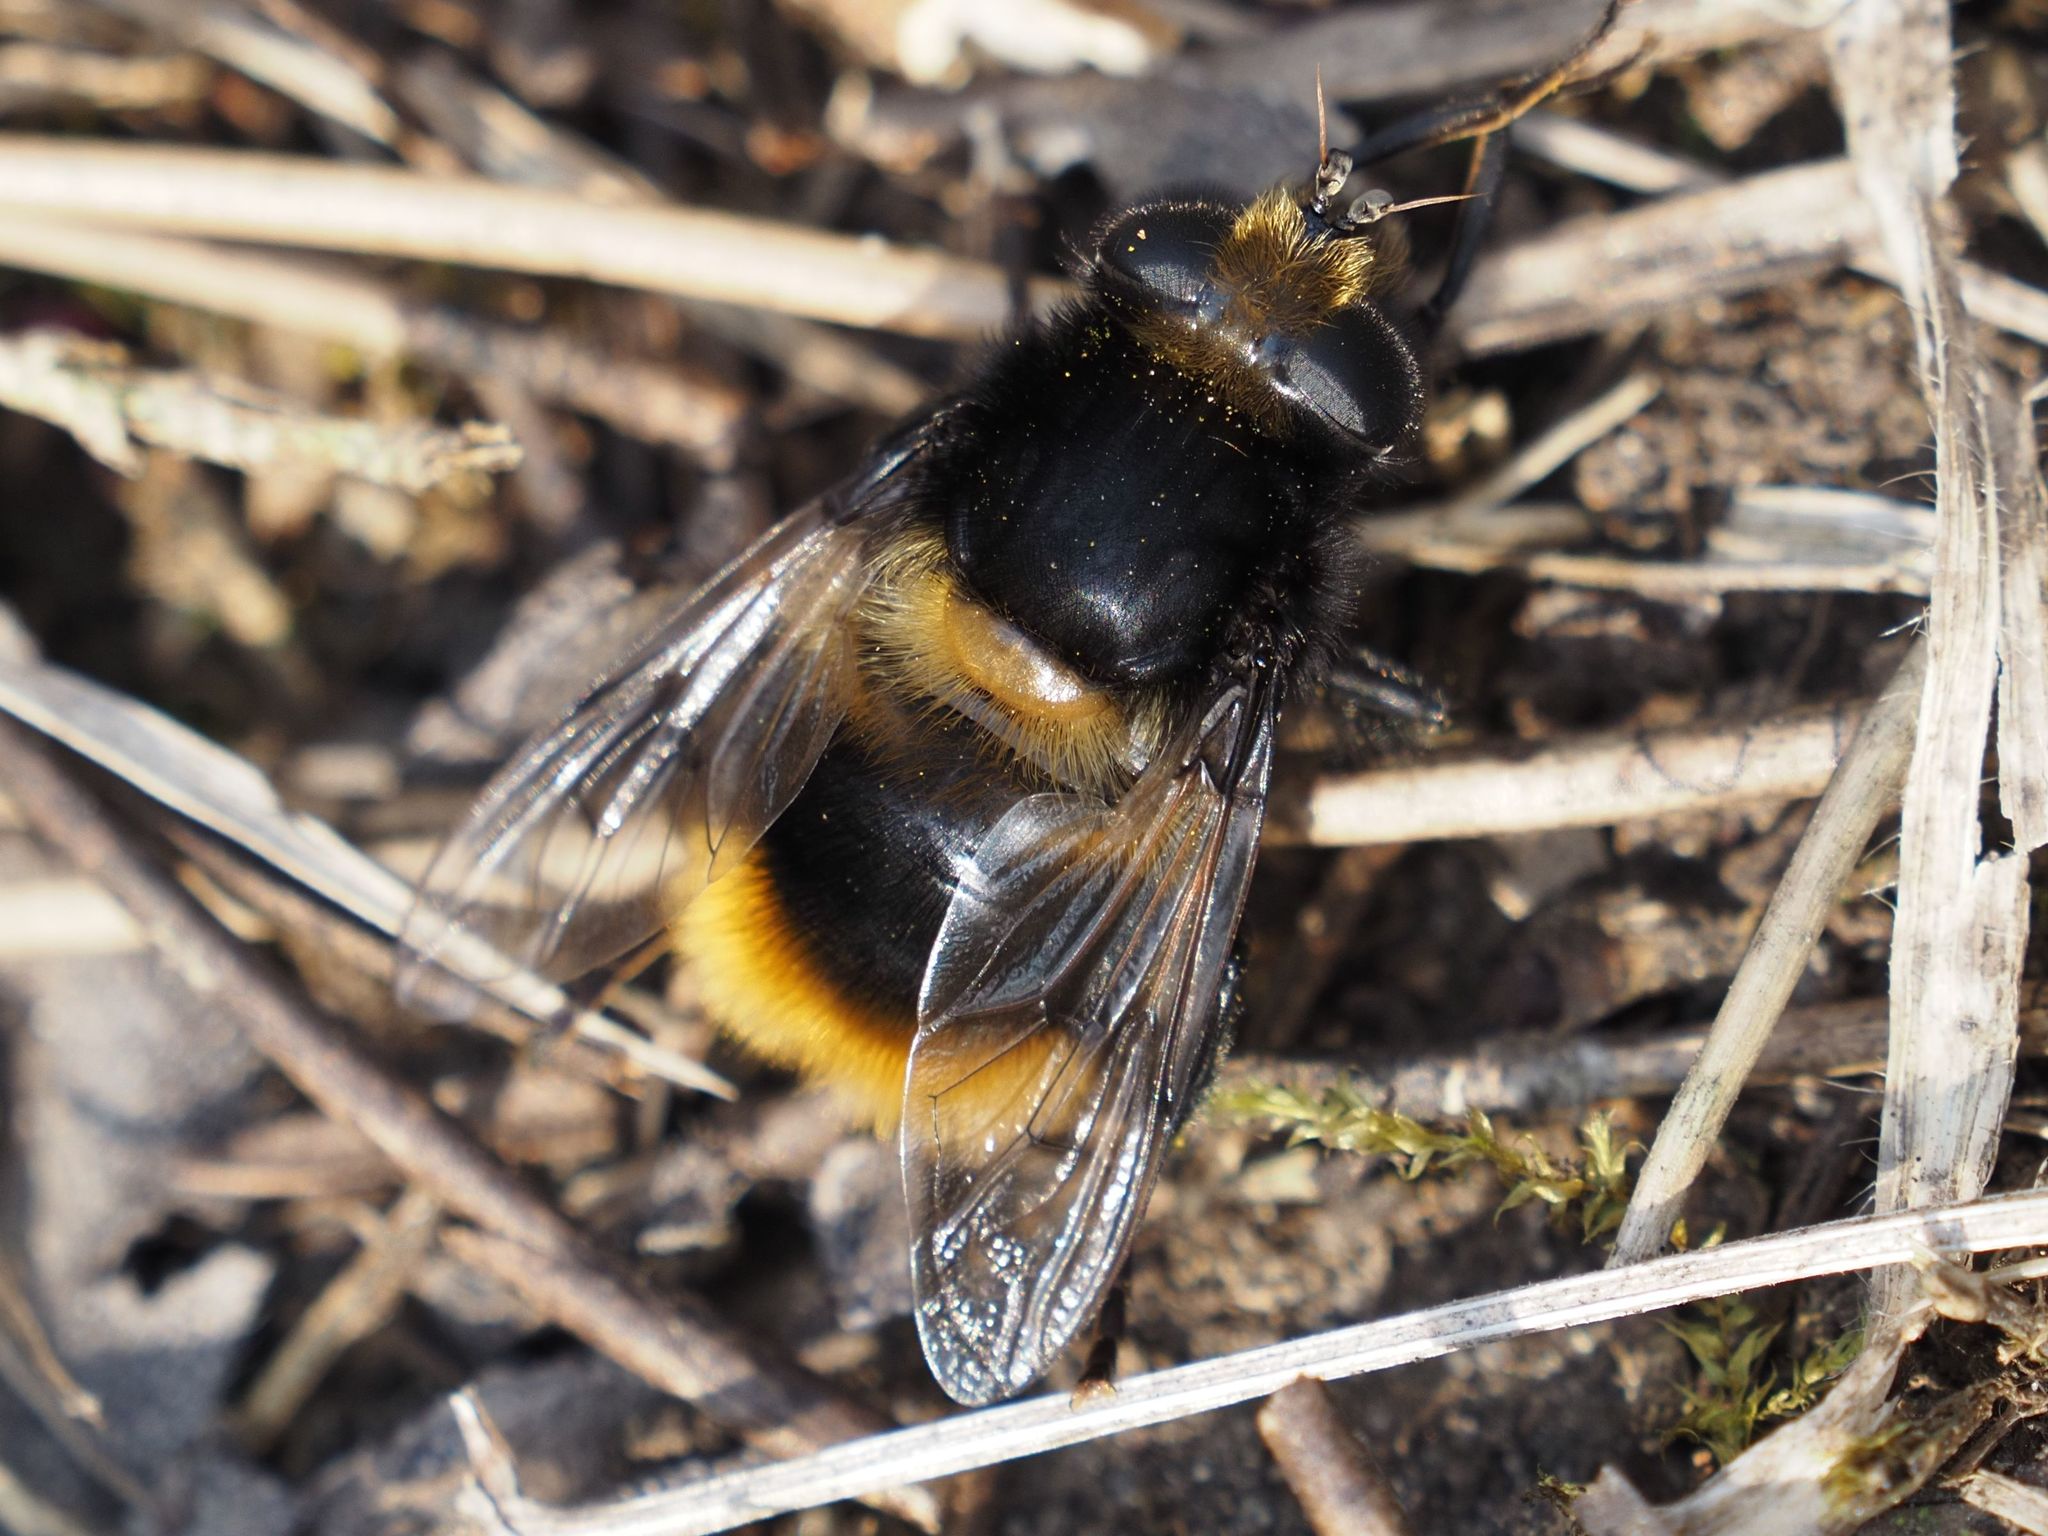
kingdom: Animalia
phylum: Arthropoda
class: Insecta
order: Diptera
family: Syrphidae
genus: Mallota
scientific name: Mallota fuciformis
